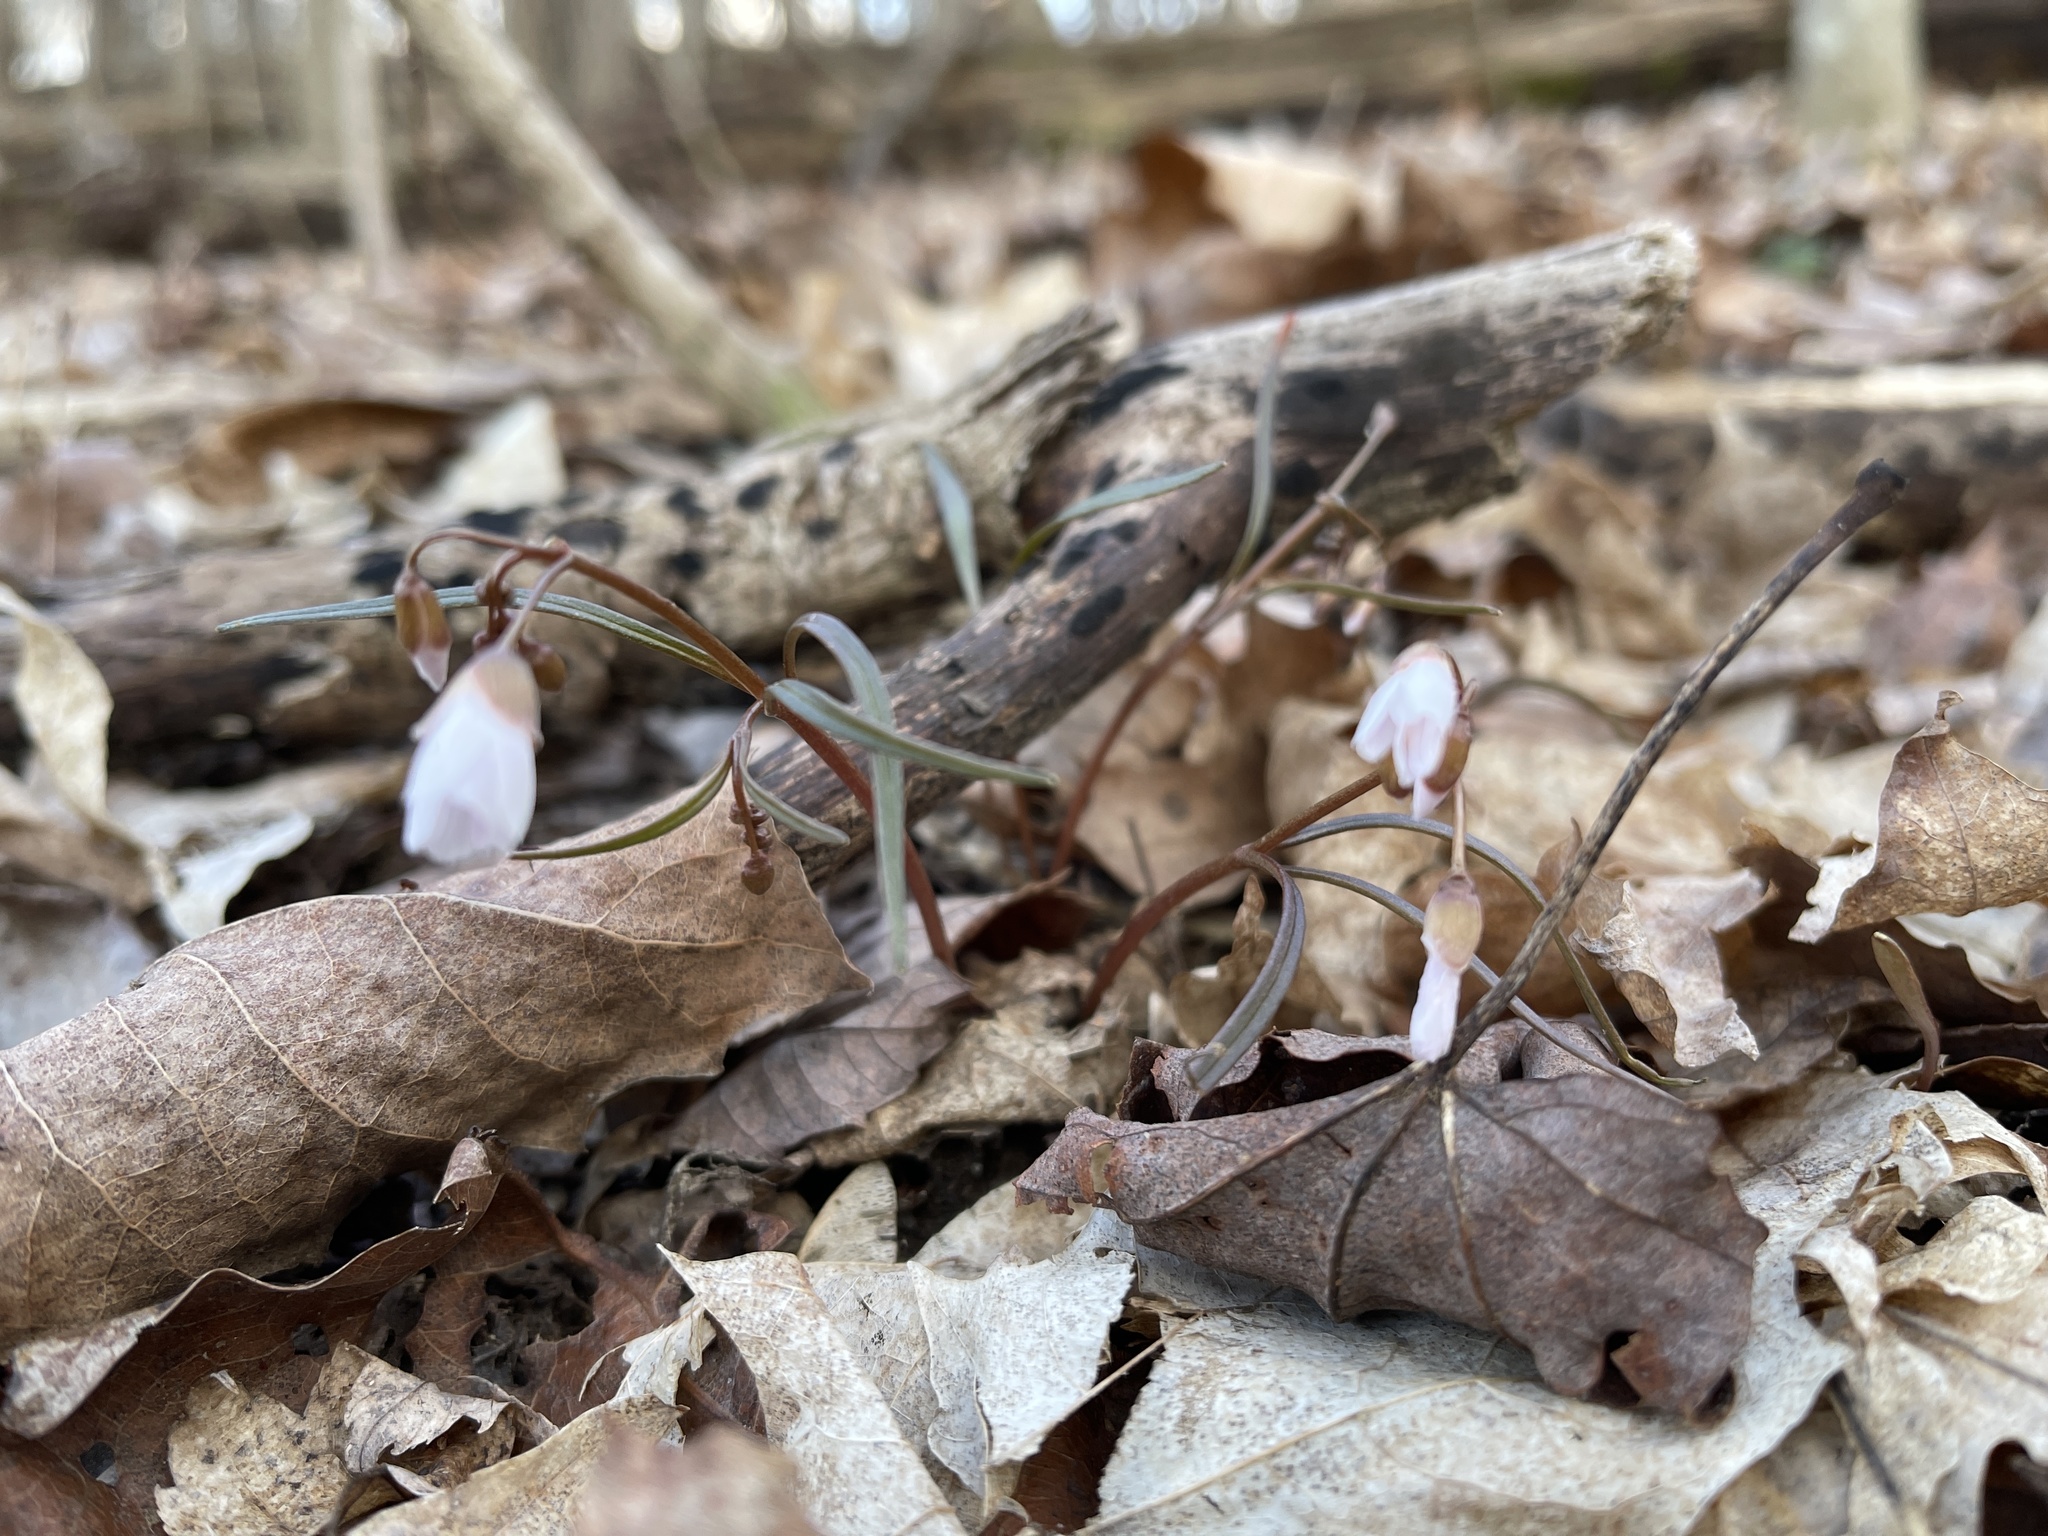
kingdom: Plantae
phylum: Tracheophyta
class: Magnoliopsida
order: Caryophyllales
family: Montiaceae
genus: Claytonia
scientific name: Claytonia virginica
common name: Virginia springbeauty
